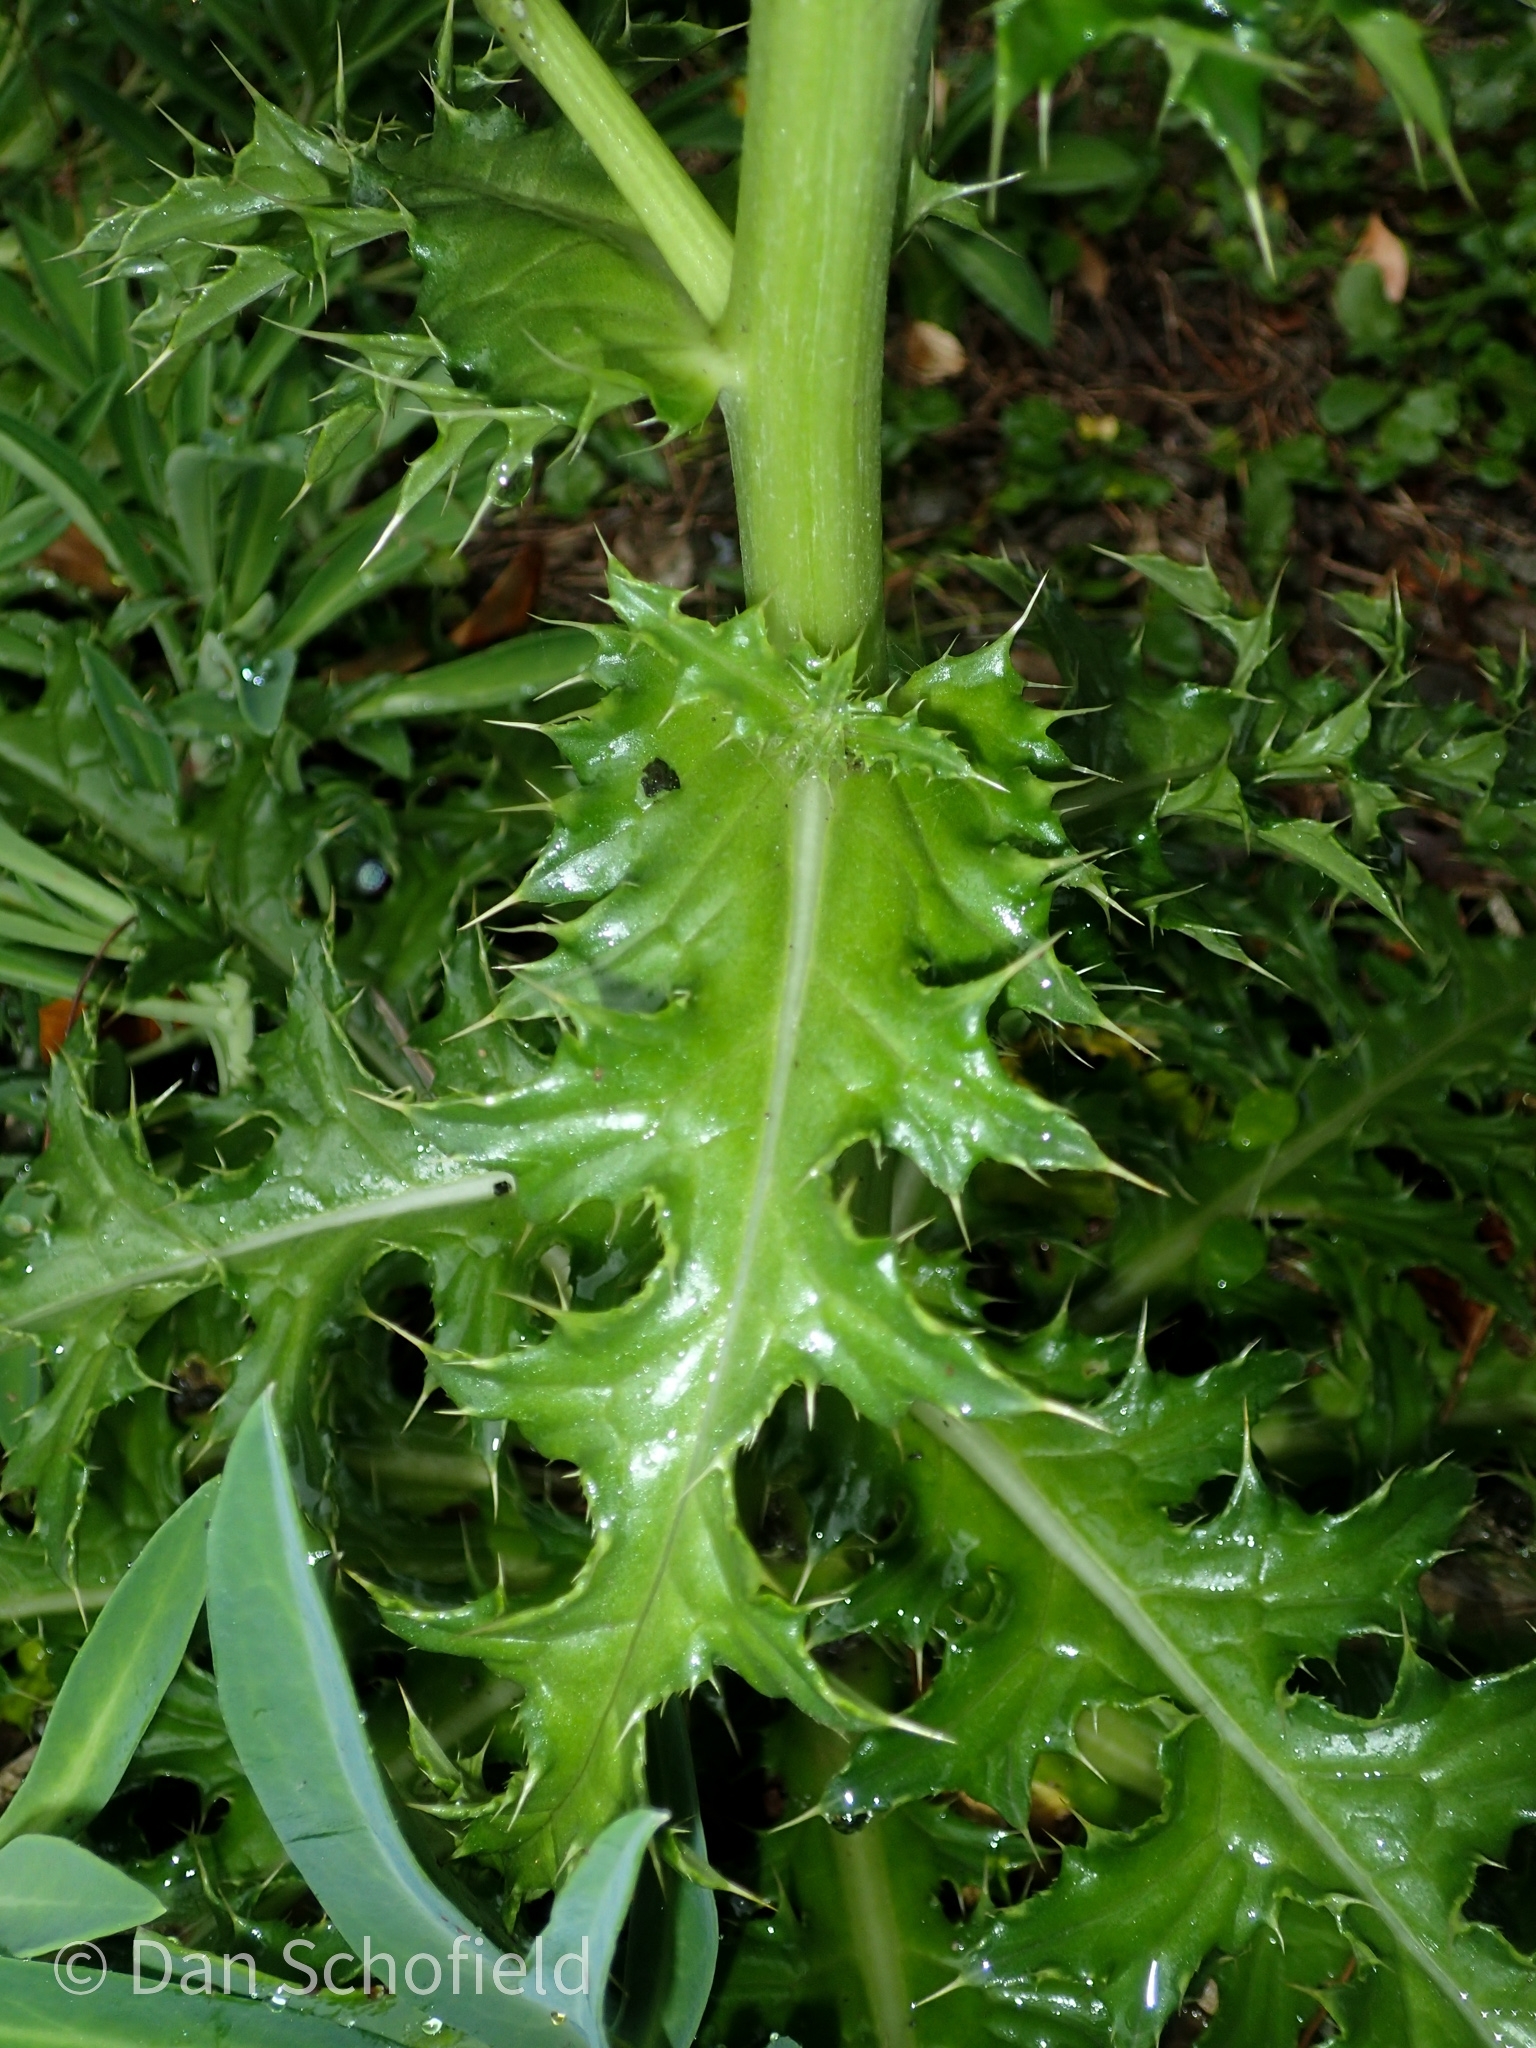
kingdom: Plantae
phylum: Tracheophyta
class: Magnoliopsida
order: Asterales
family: Asteraceae
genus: Cirsium
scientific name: Cirsium japonicum
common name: Japanese thistle
